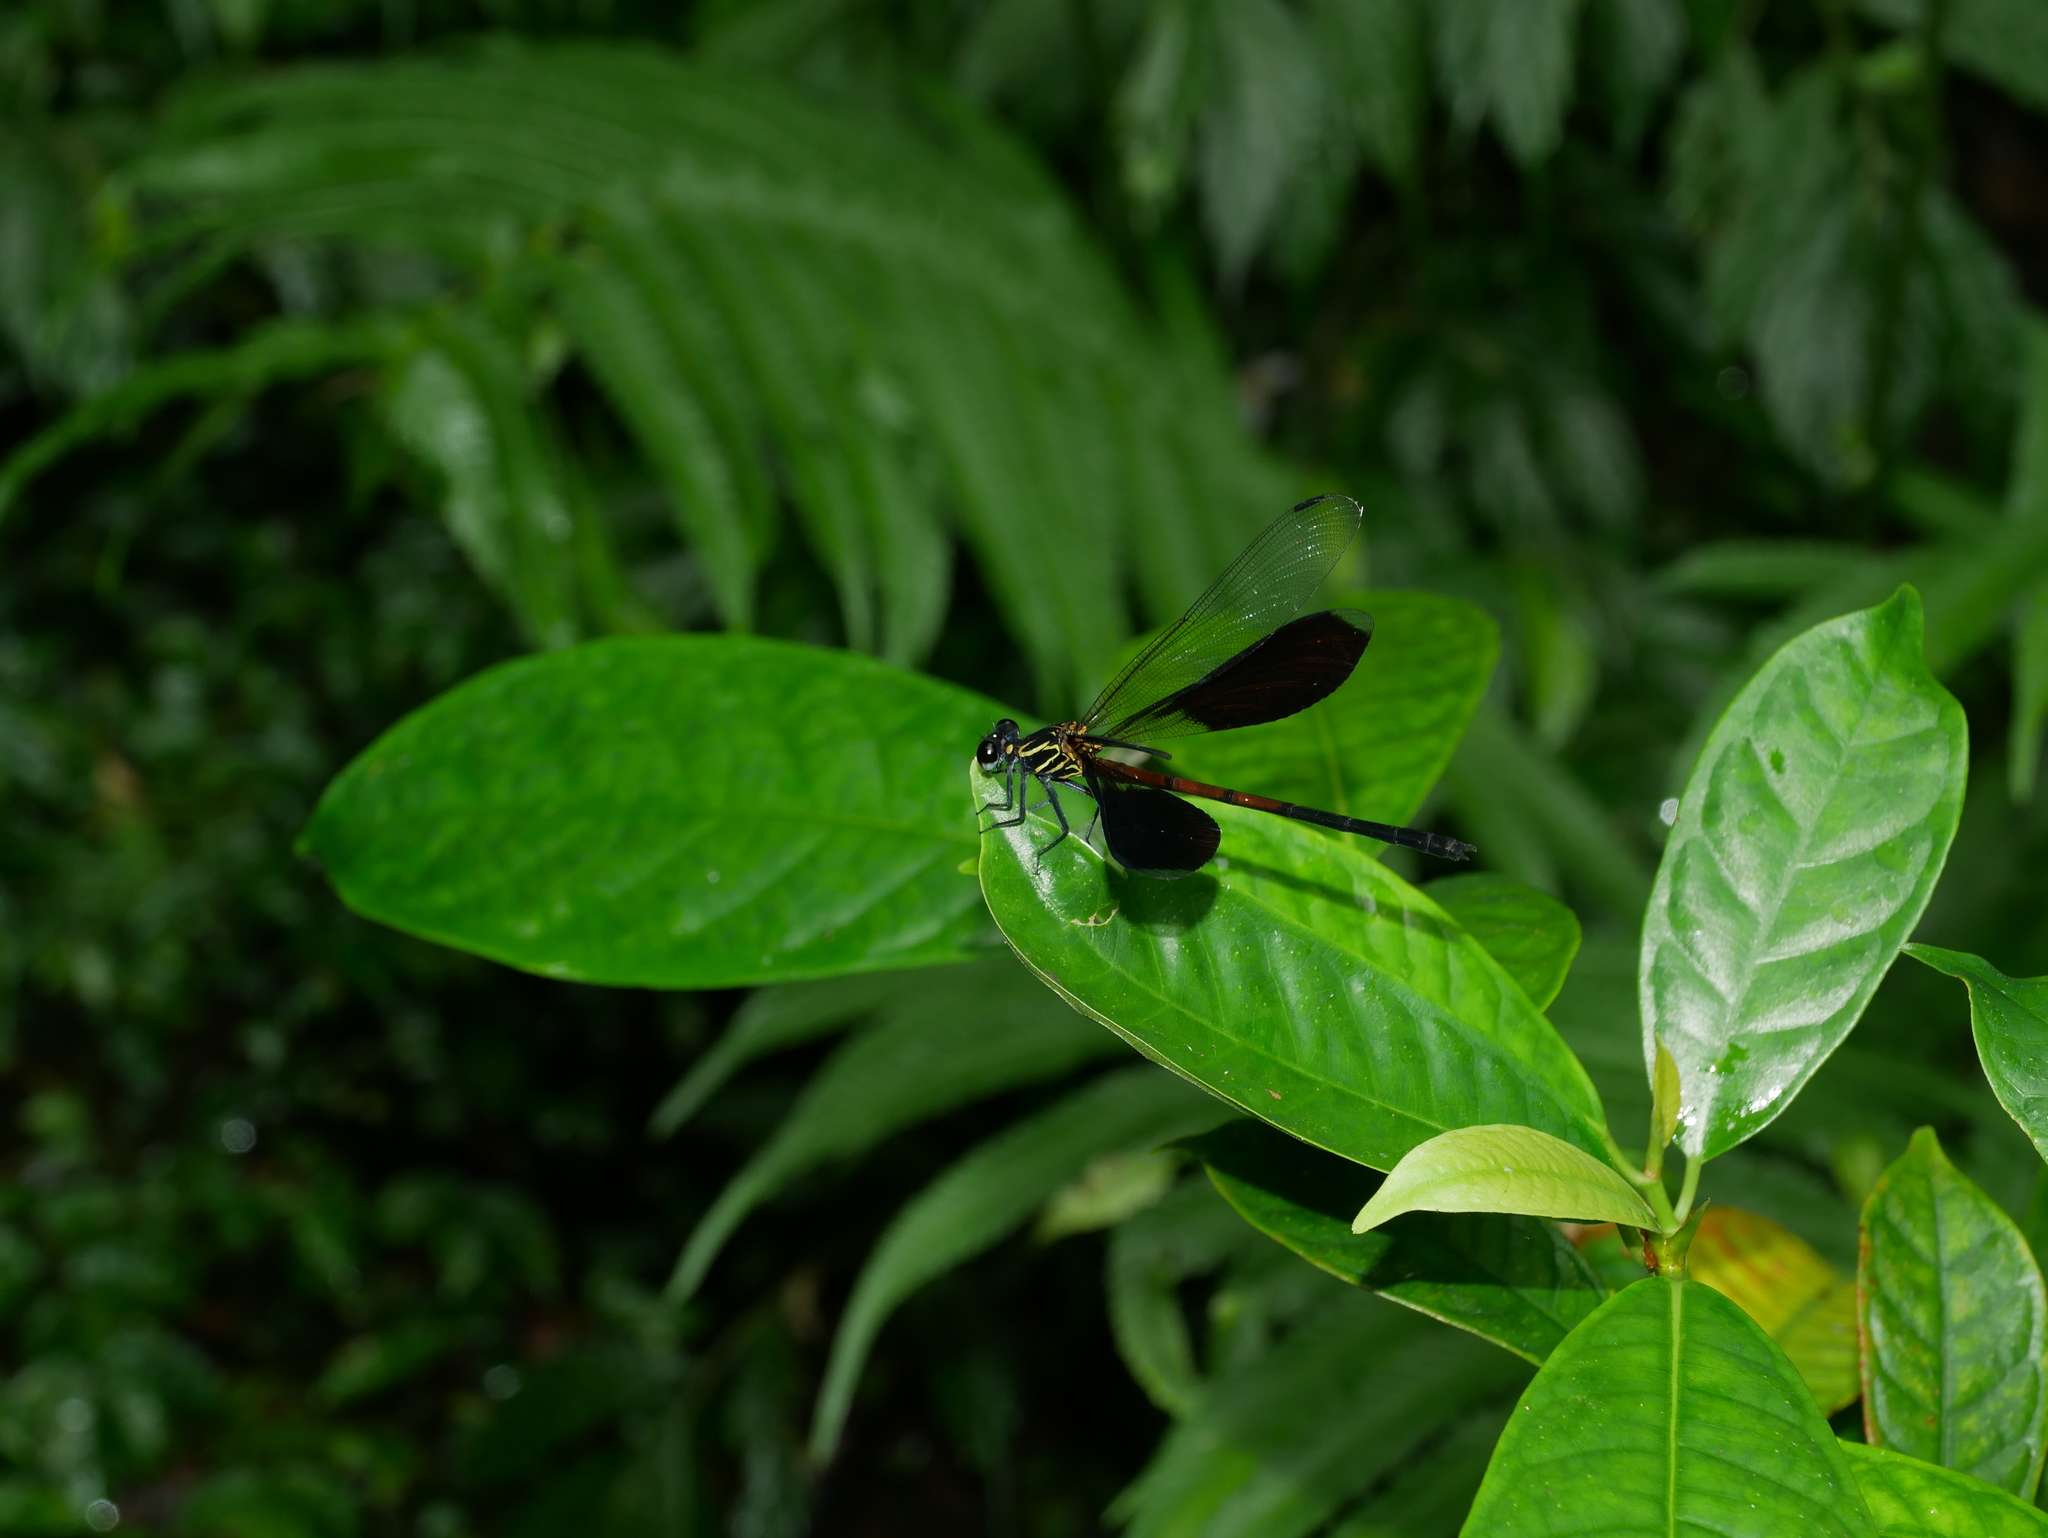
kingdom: Animalia
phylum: Arthropoda
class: Insecta
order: Odonata
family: Euphaeidae
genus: Euphaea
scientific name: Euphaea formosa
